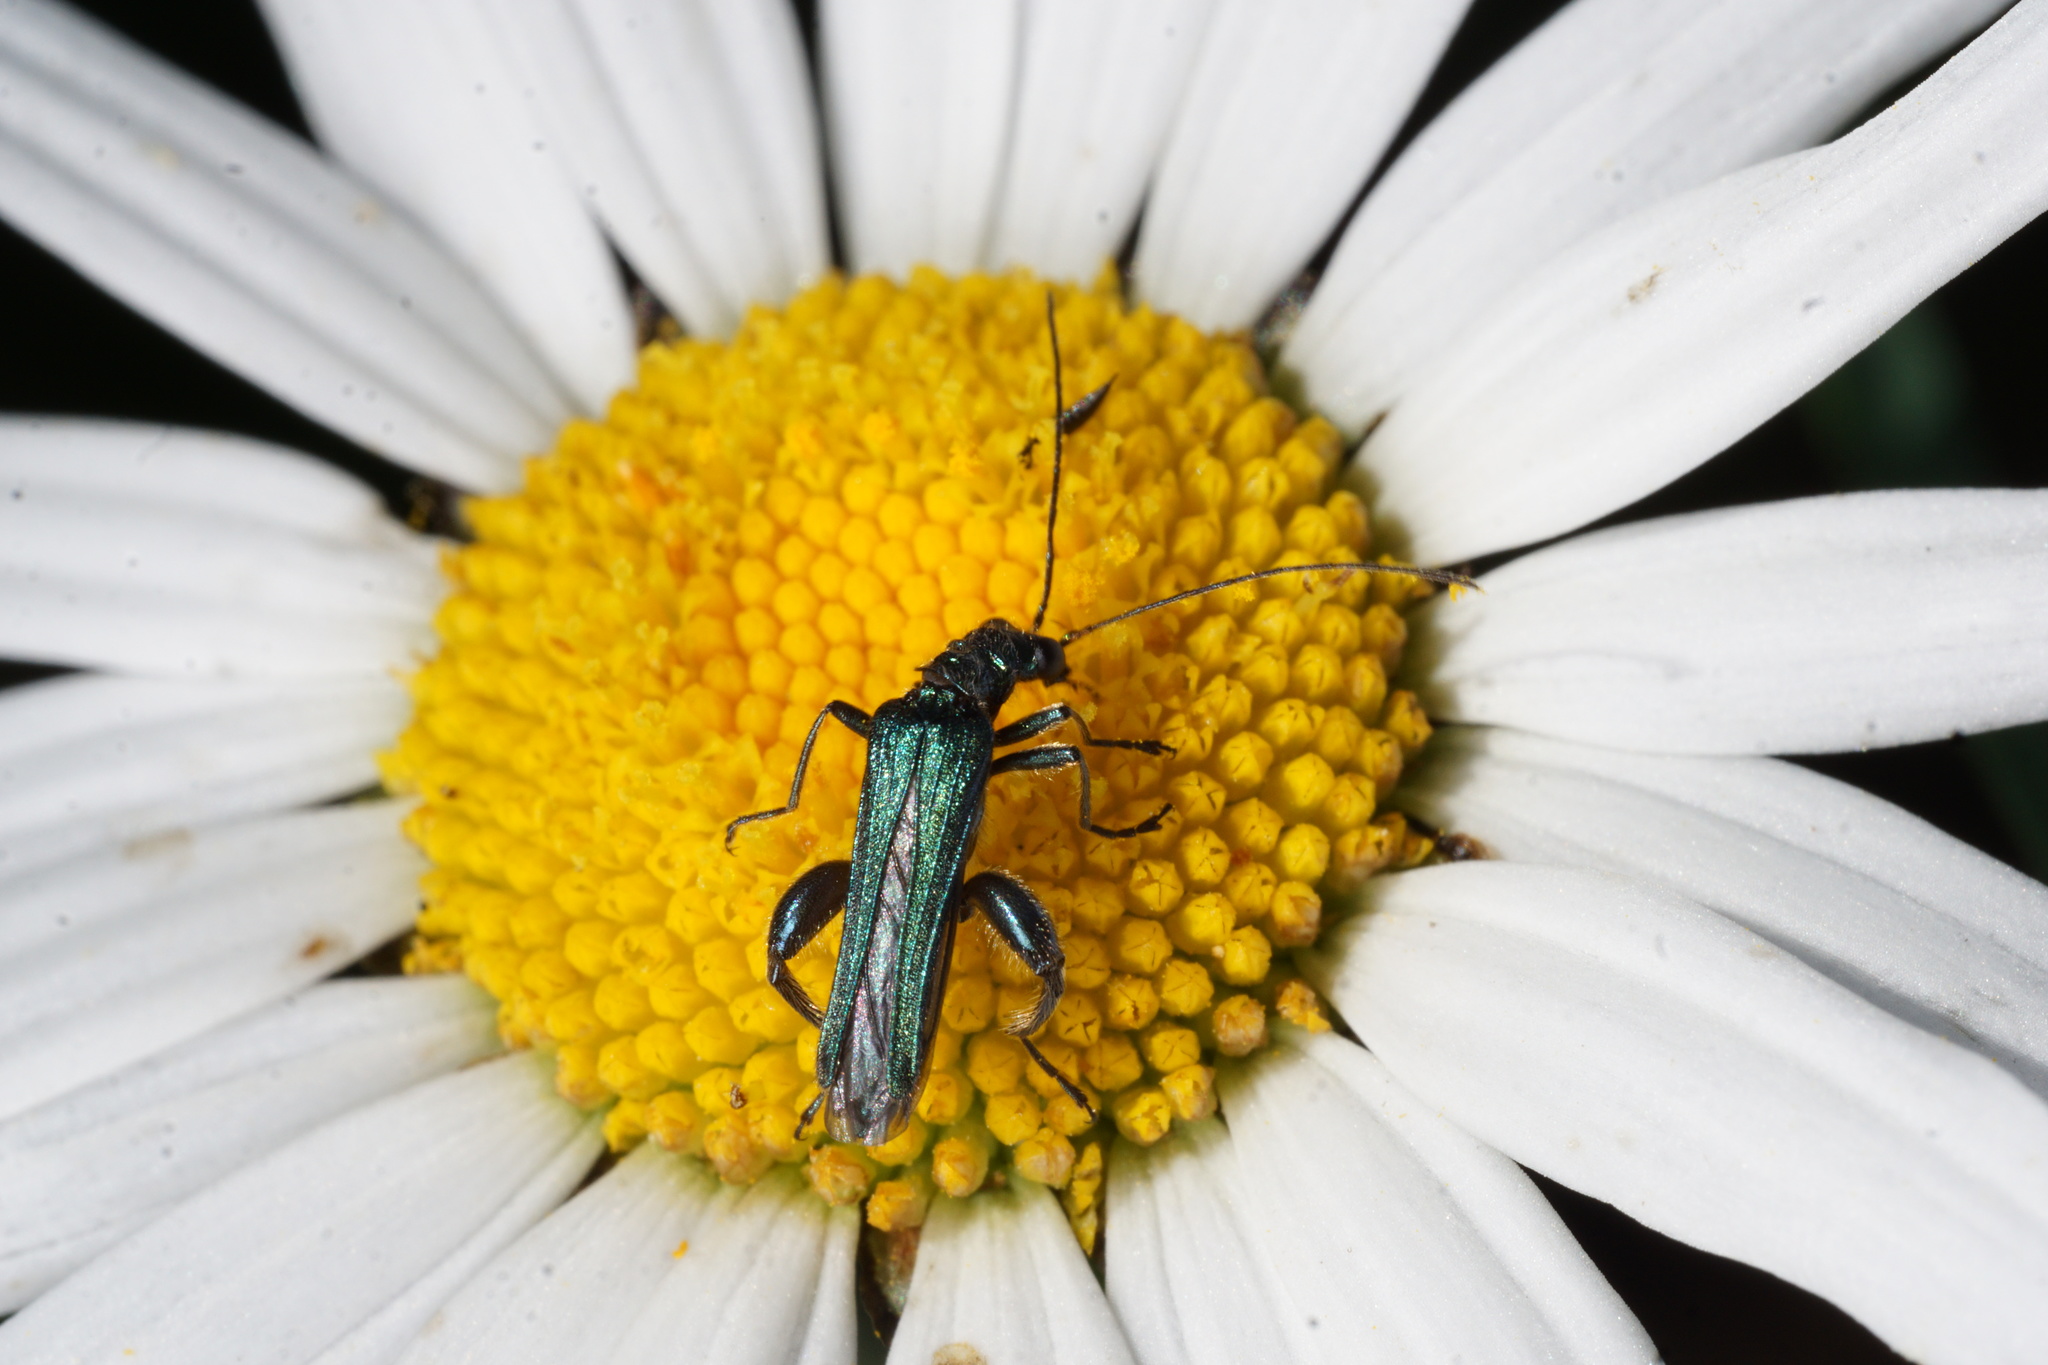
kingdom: Animalia
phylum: Arthropoda
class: Insecta
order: Coleoptera
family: Oedemeridae
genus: Oedemera
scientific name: Oedemera nobilis
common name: Swollen-thighed beetle
